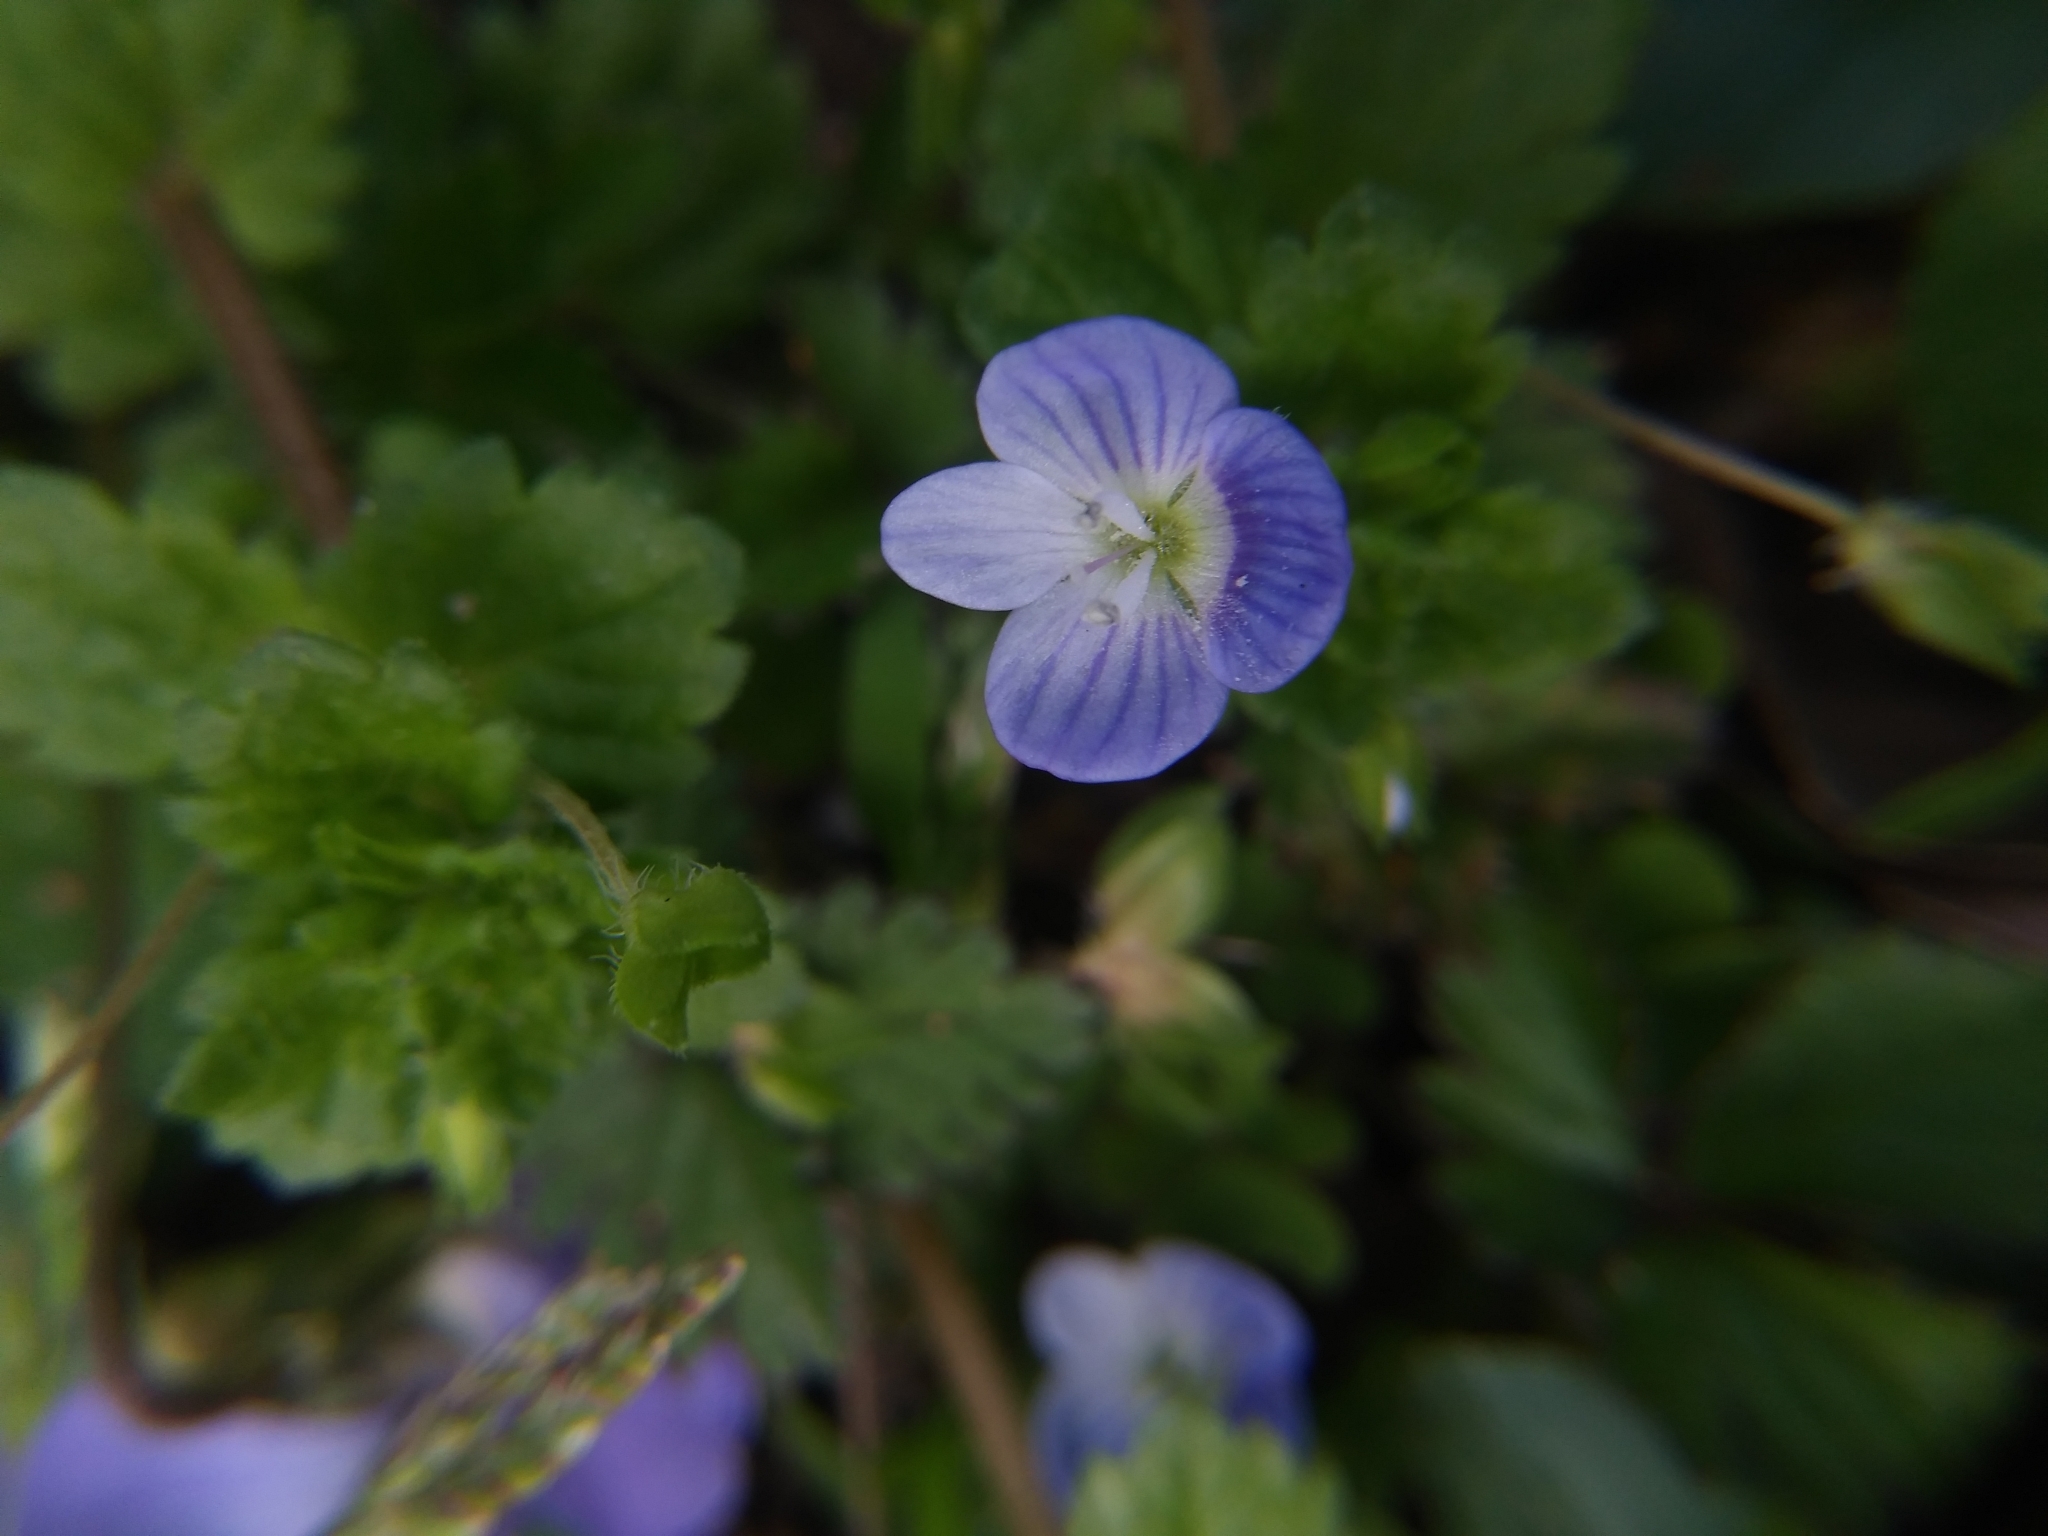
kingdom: Plantae
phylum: Tracheophyta
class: Magnoliopsida
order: Lamiales
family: Plantaginaceae
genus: Veronica
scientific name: Veronica persica
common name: Common field-speedwell
